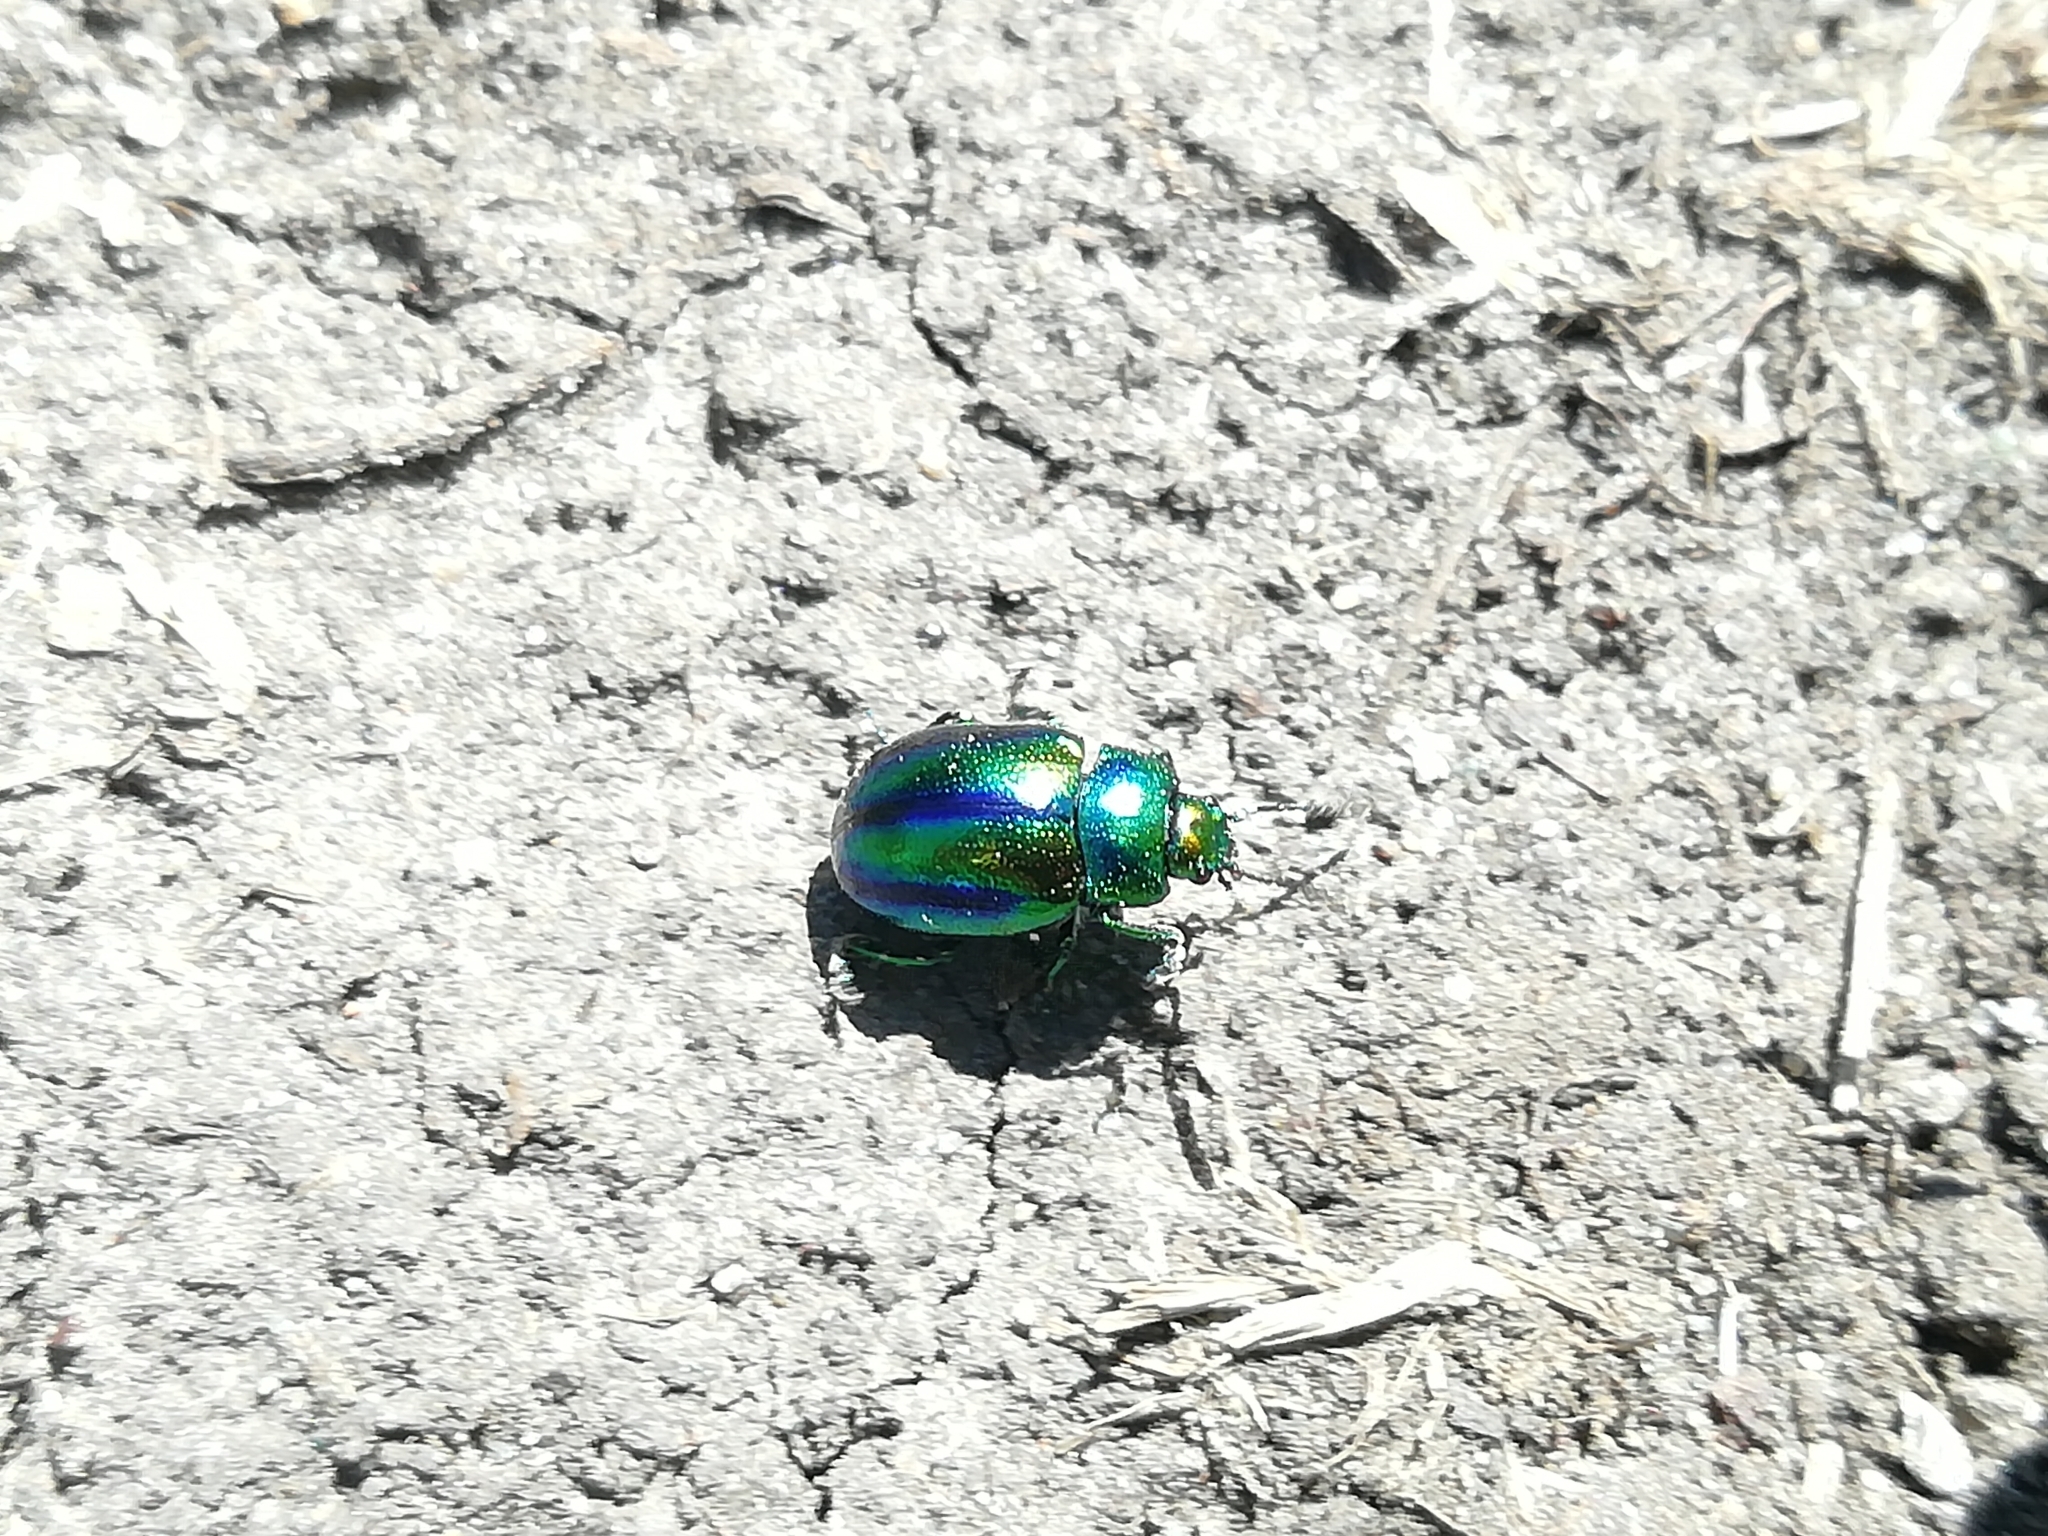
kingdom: Animalia
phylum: Arthropoda
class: Insecta
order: Coleoptera
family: Chrysomelidae
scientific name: Chrysomelidae
